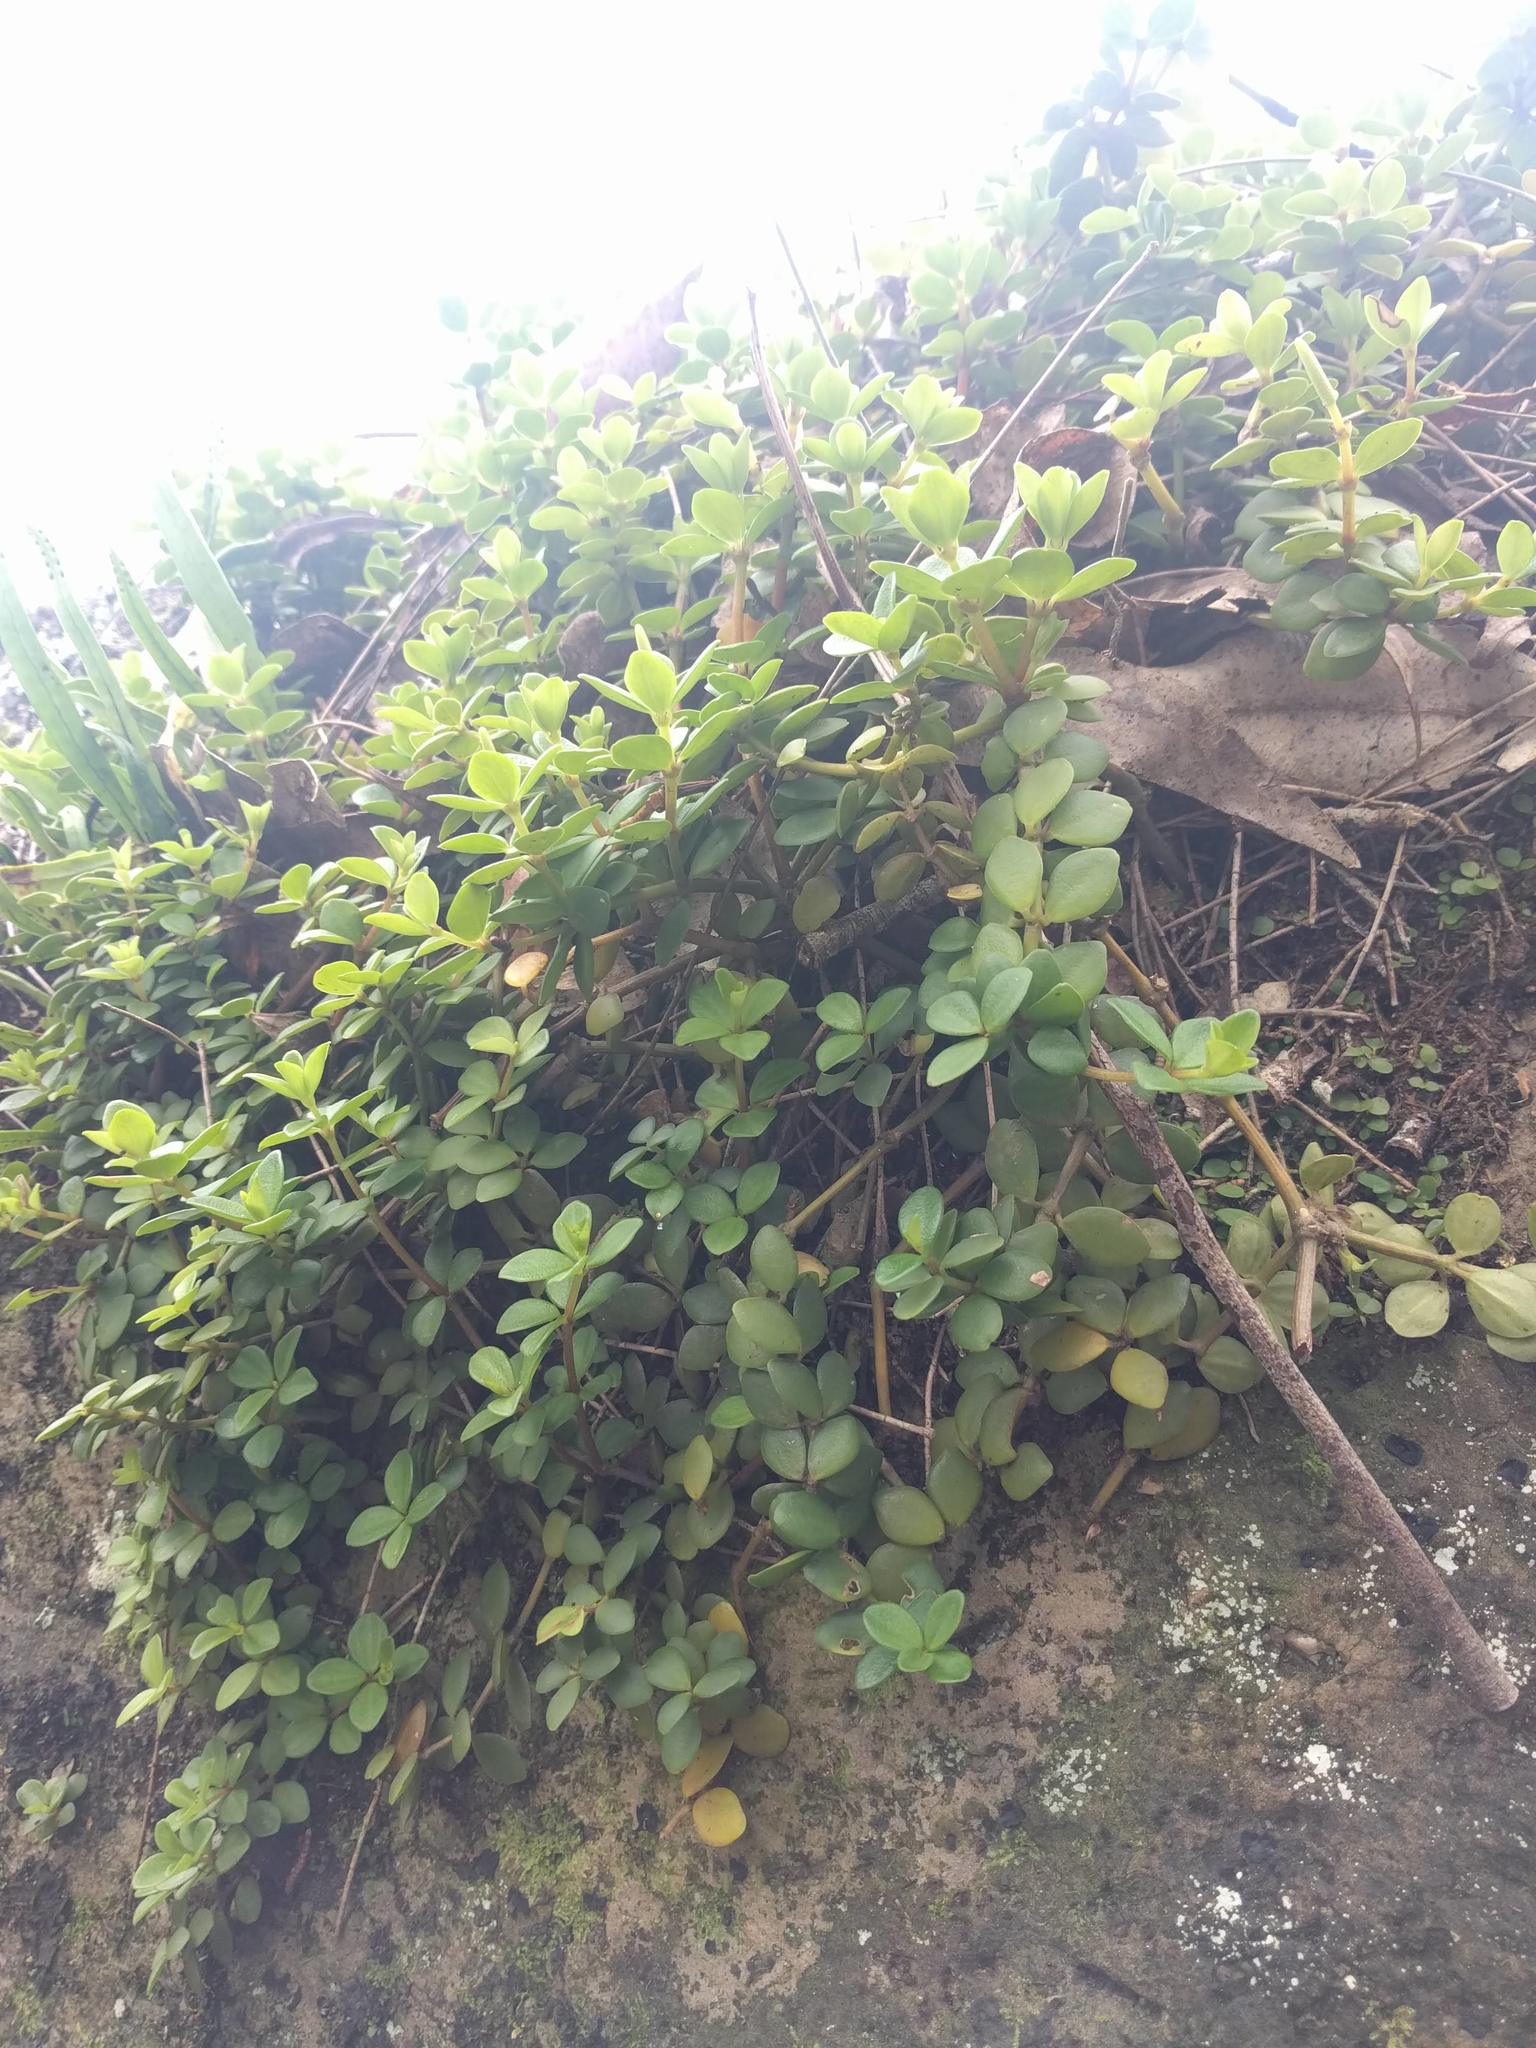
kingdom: Plantae
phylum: Tracheophyta
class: Magnoliopsida
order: Piperales
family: Piperaceae
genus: Peperomia
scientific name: Peperomia tetraphylla
